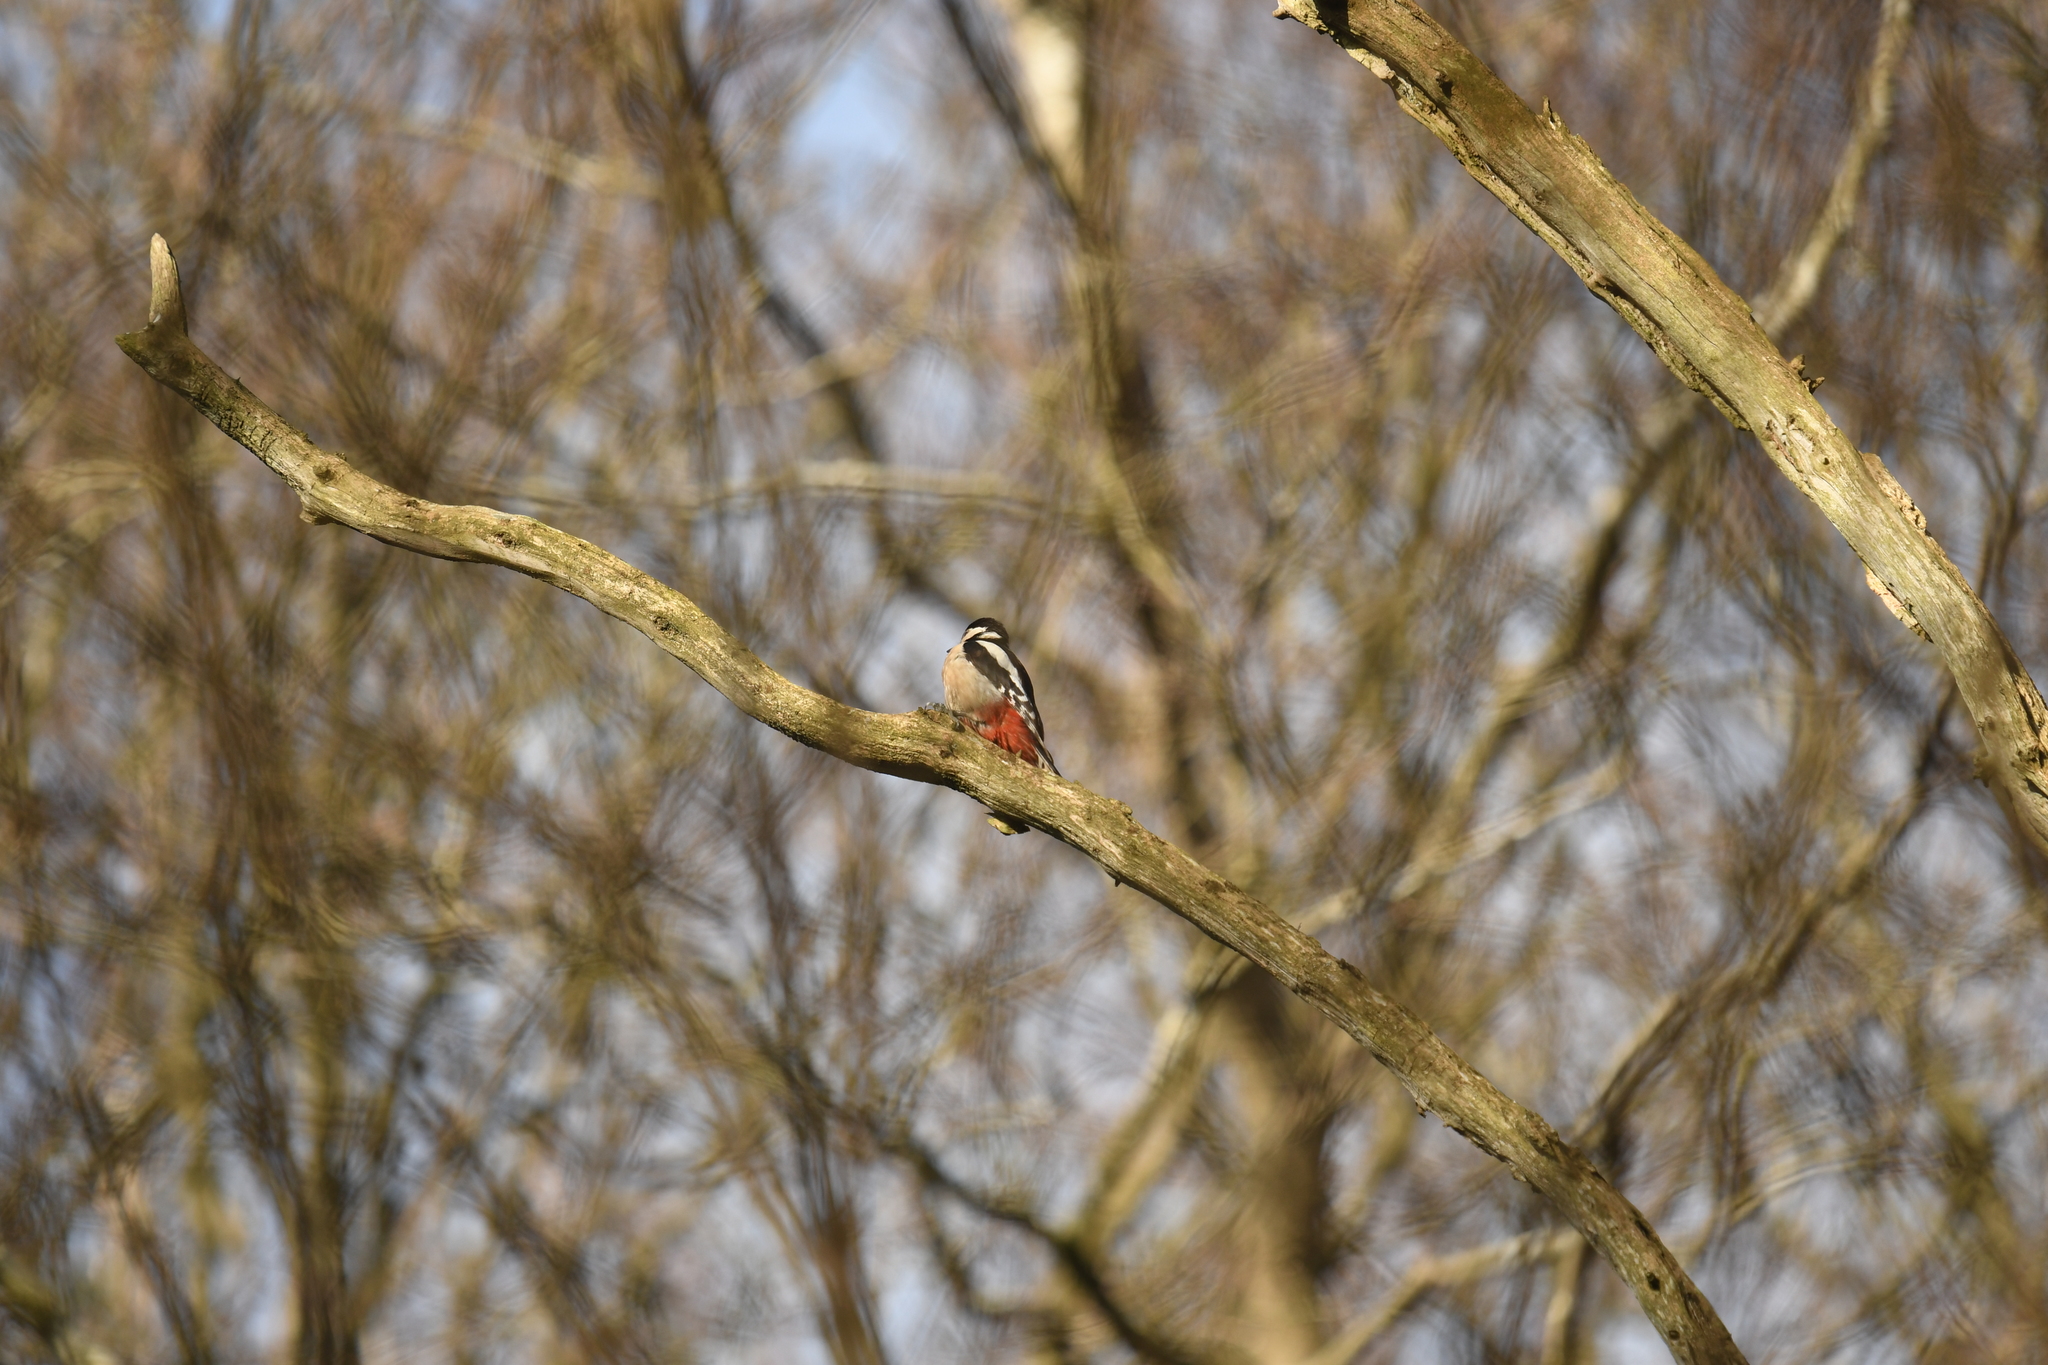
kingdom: Animalia
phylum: Chordata
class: Aves
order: Piciformes
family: Picidae
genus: Dendrocopos
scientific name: Dendrocopos major
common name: Great spotted woodpecker
